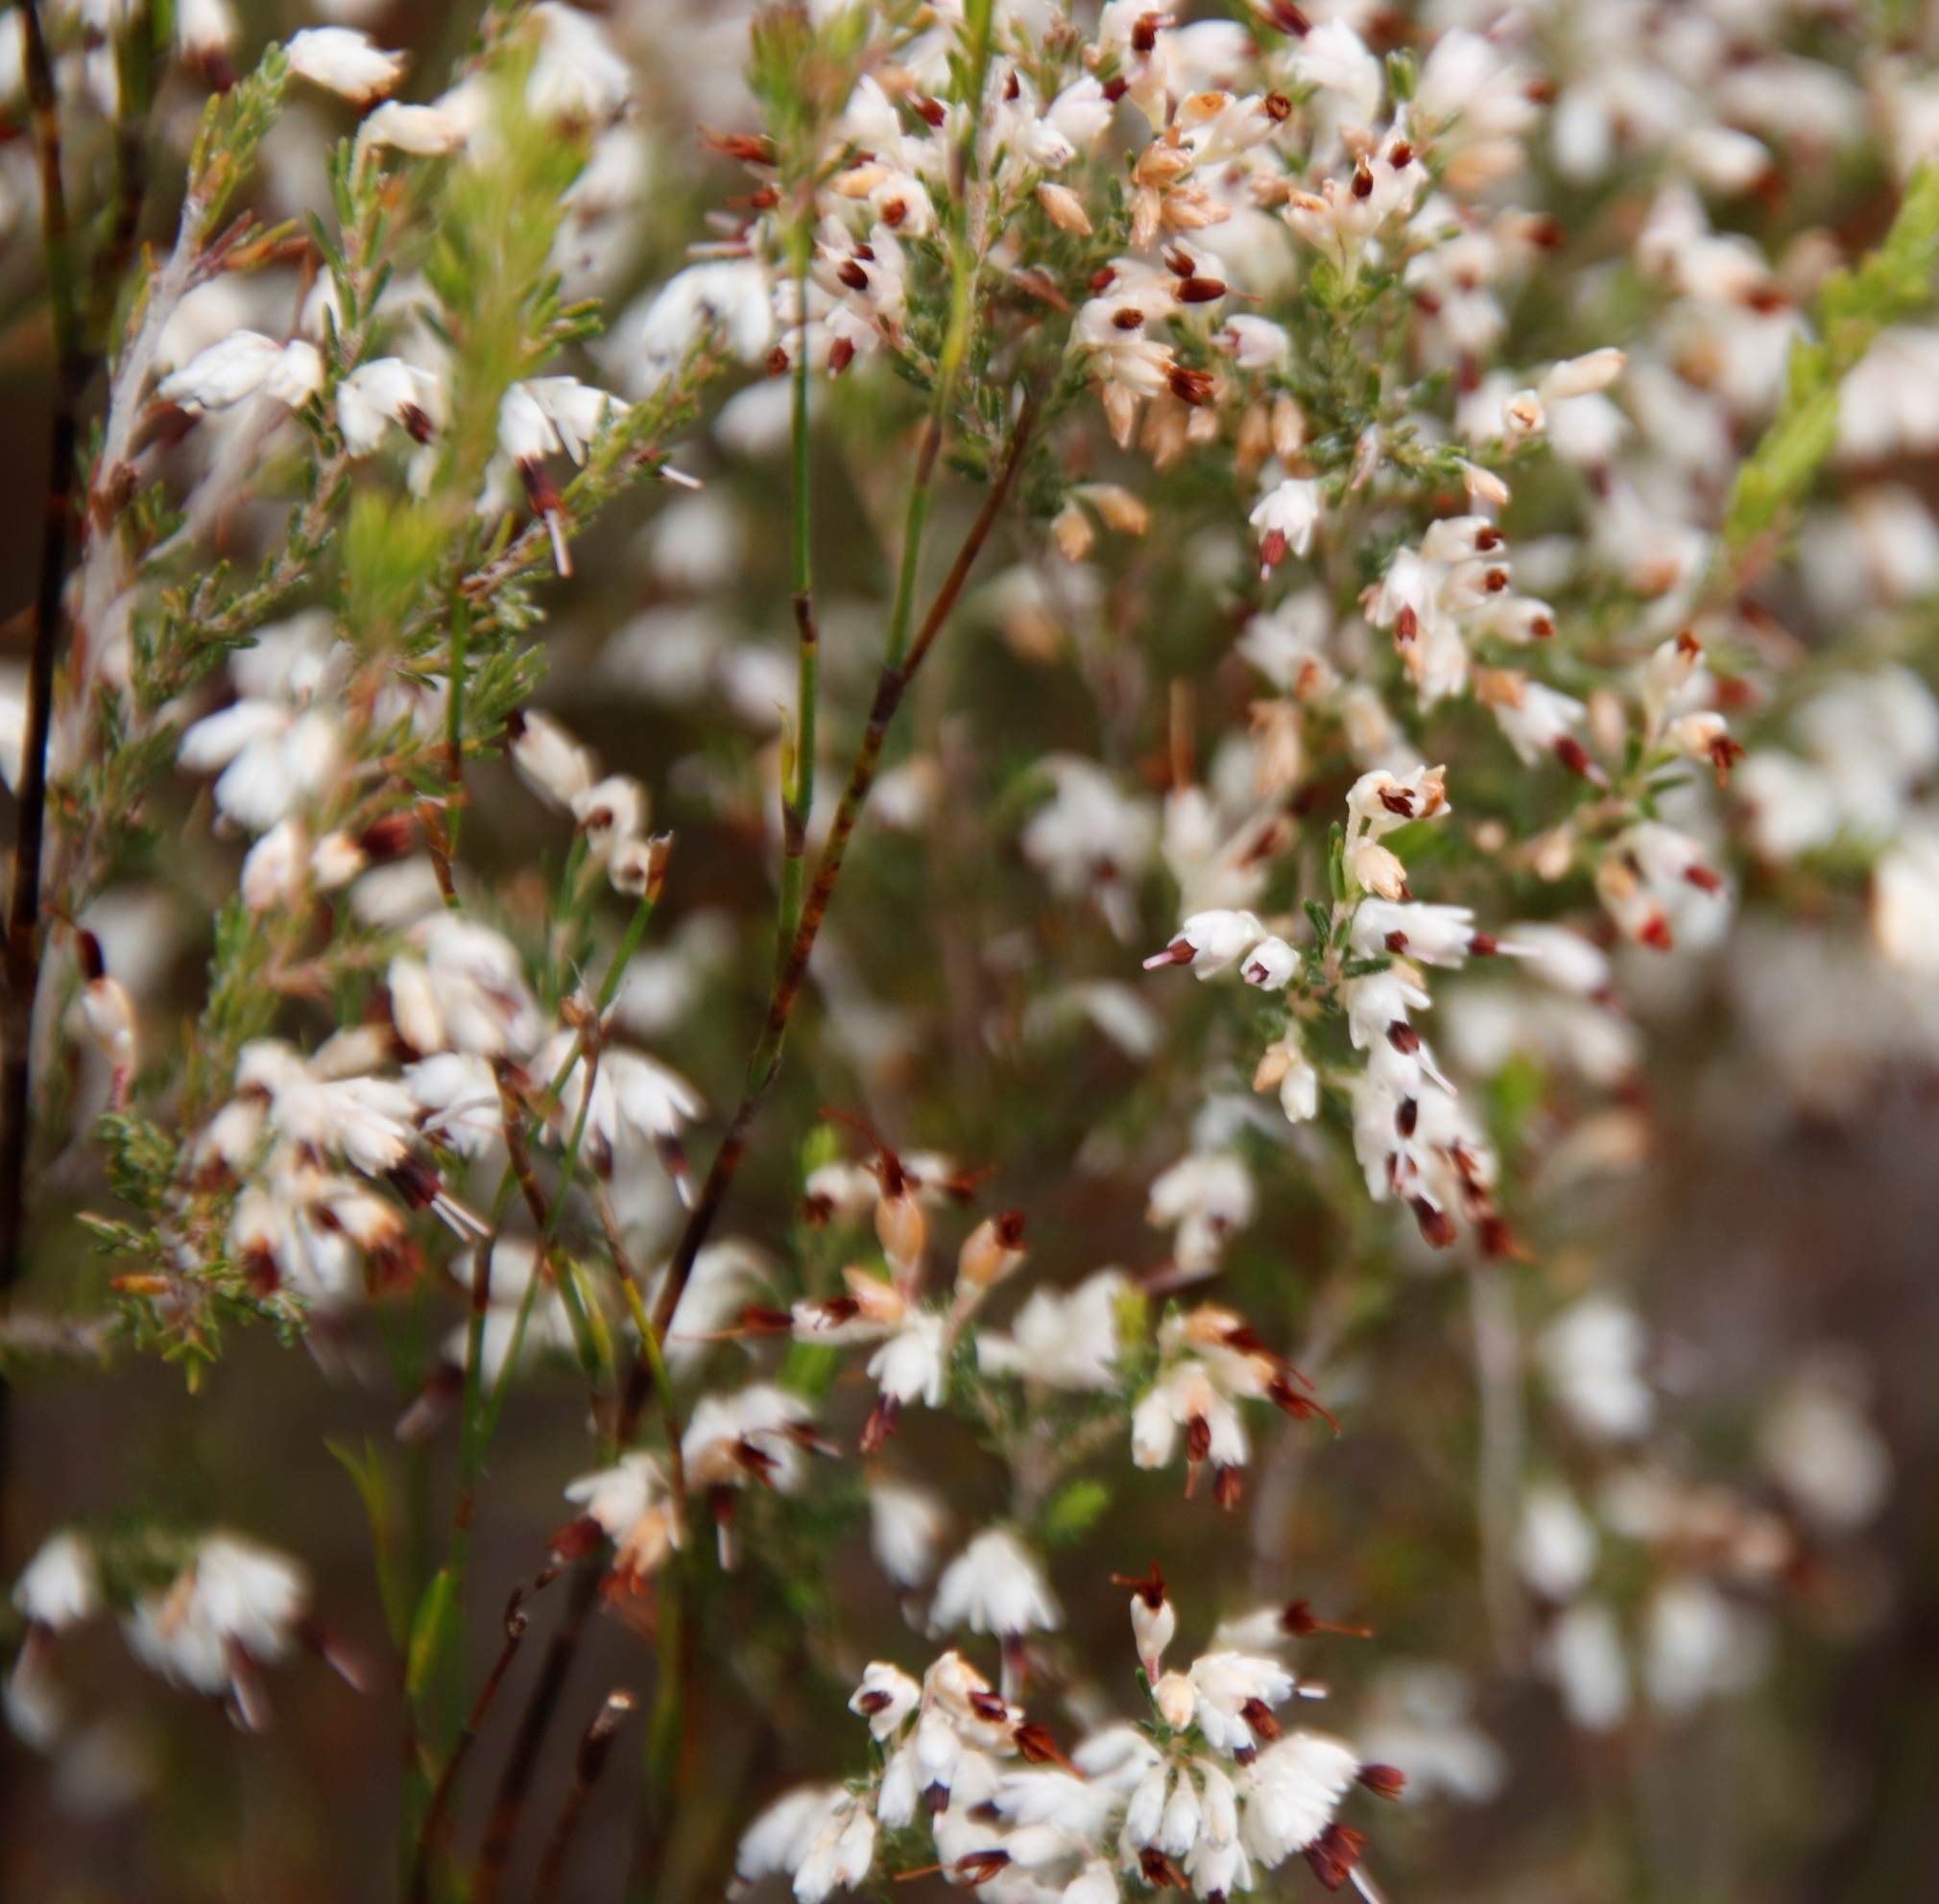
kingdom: Plantae
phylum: Tracheophyta
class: Magnoliopsida
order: Ericales
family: Ericaceae
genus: Erica
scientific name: Erica imbricata
